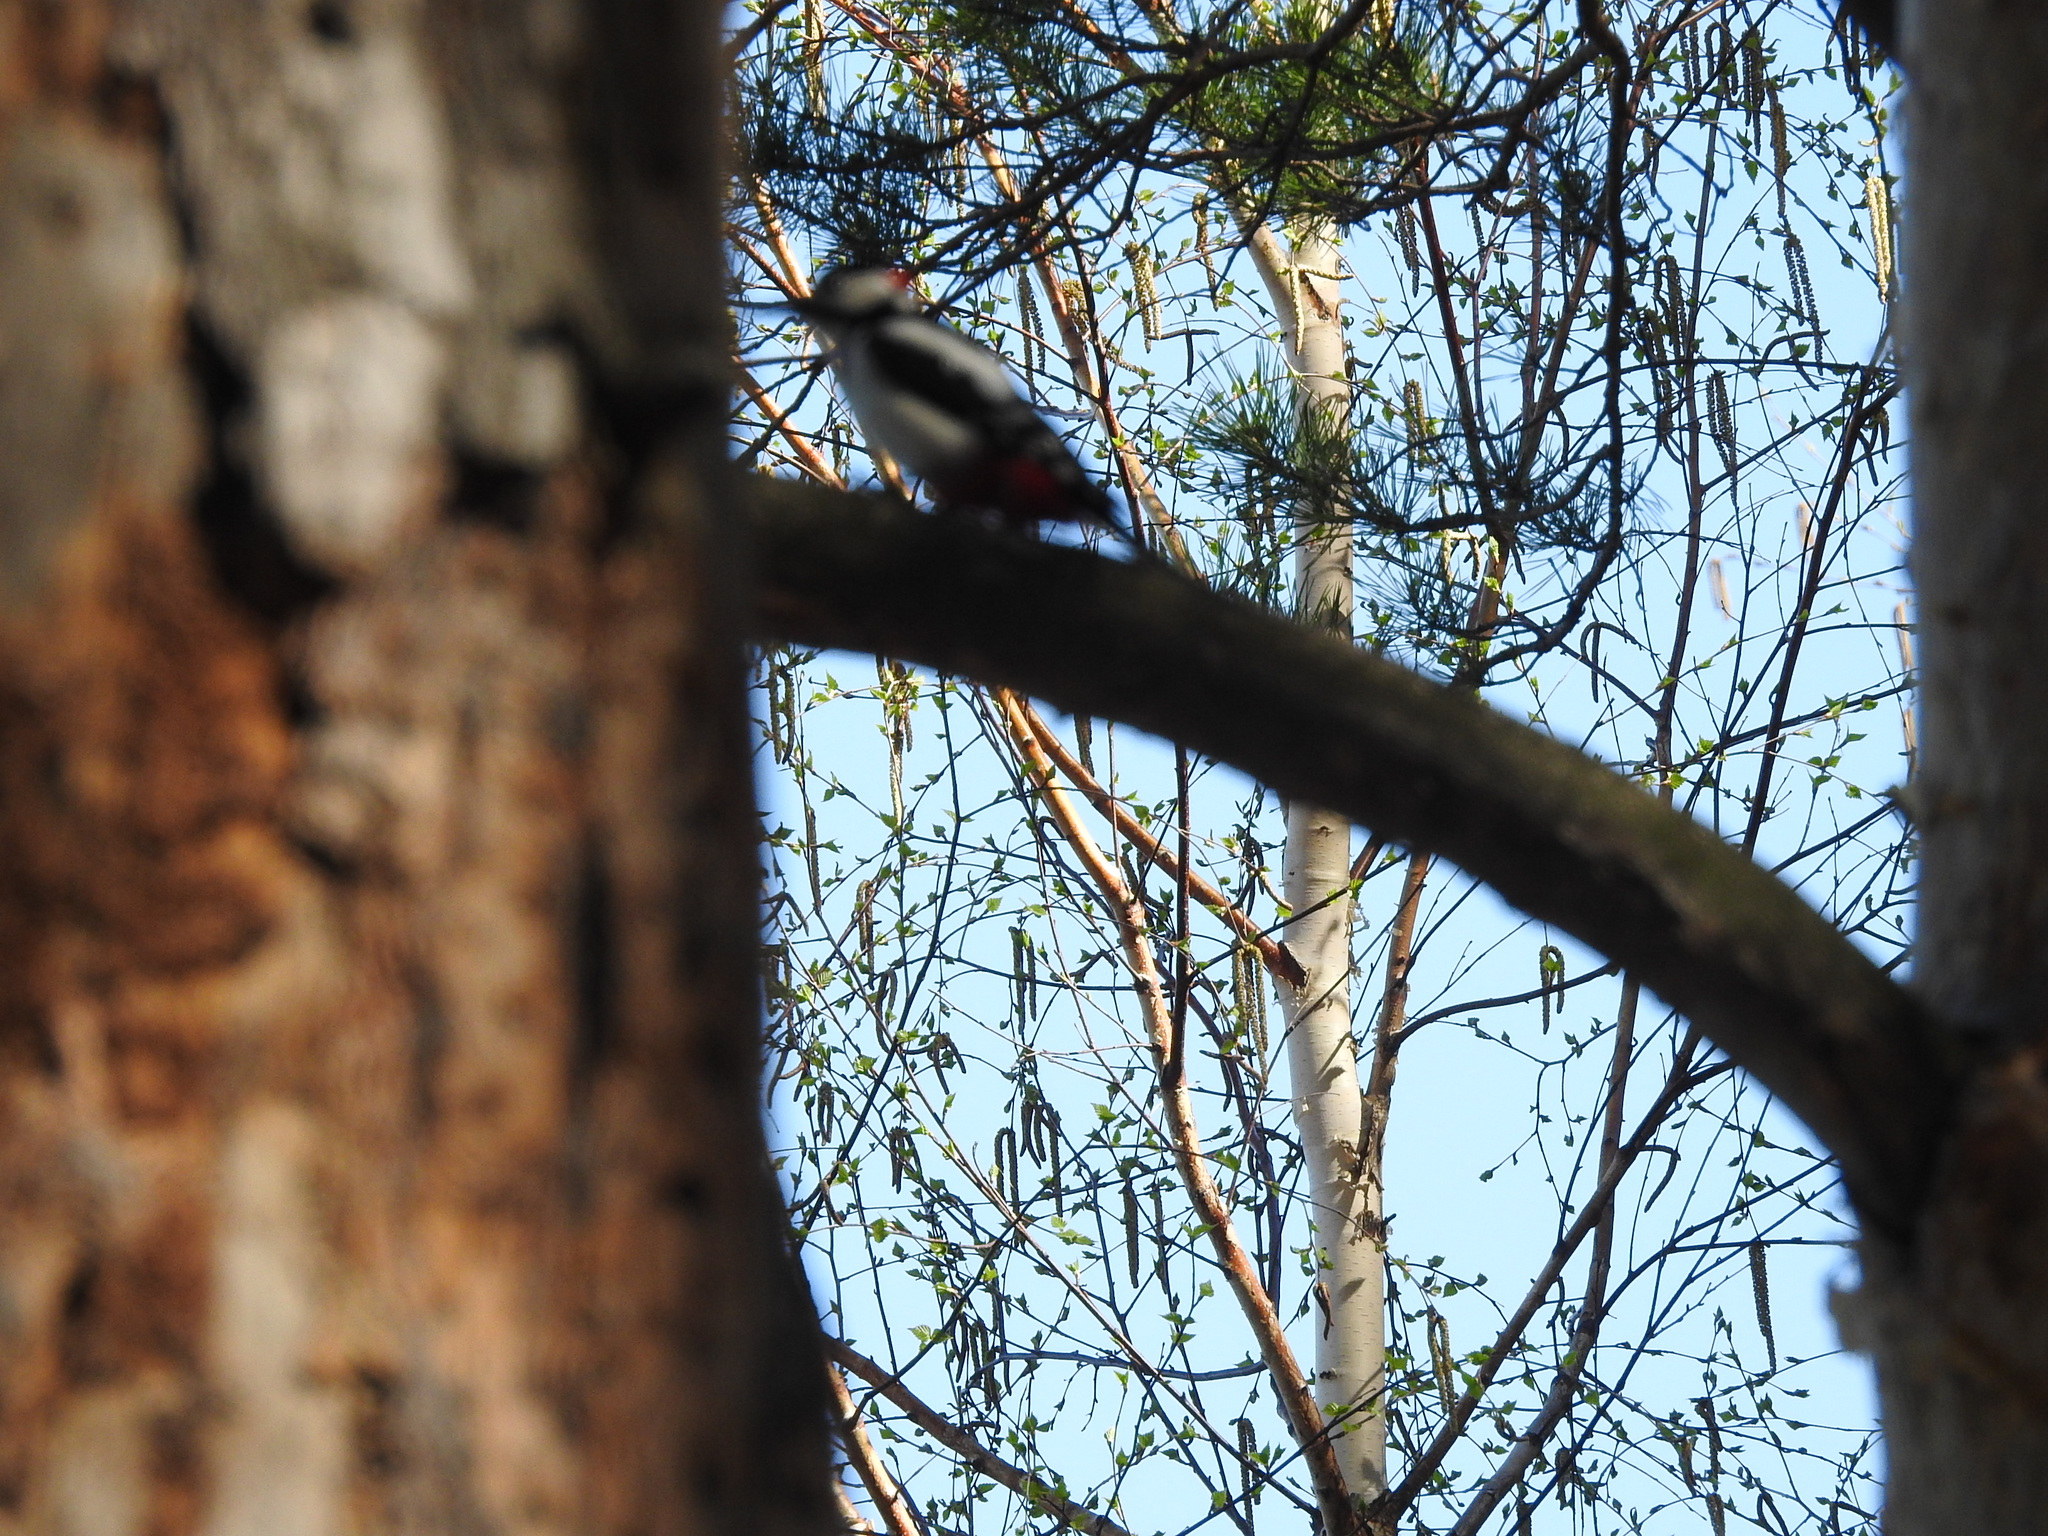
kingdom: Animalia
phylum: Chordata
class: Aves
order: Piciformes
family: Picidae
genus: Dendrocopos
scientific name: Dendrocopos major
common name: Great spotted woodpecker
